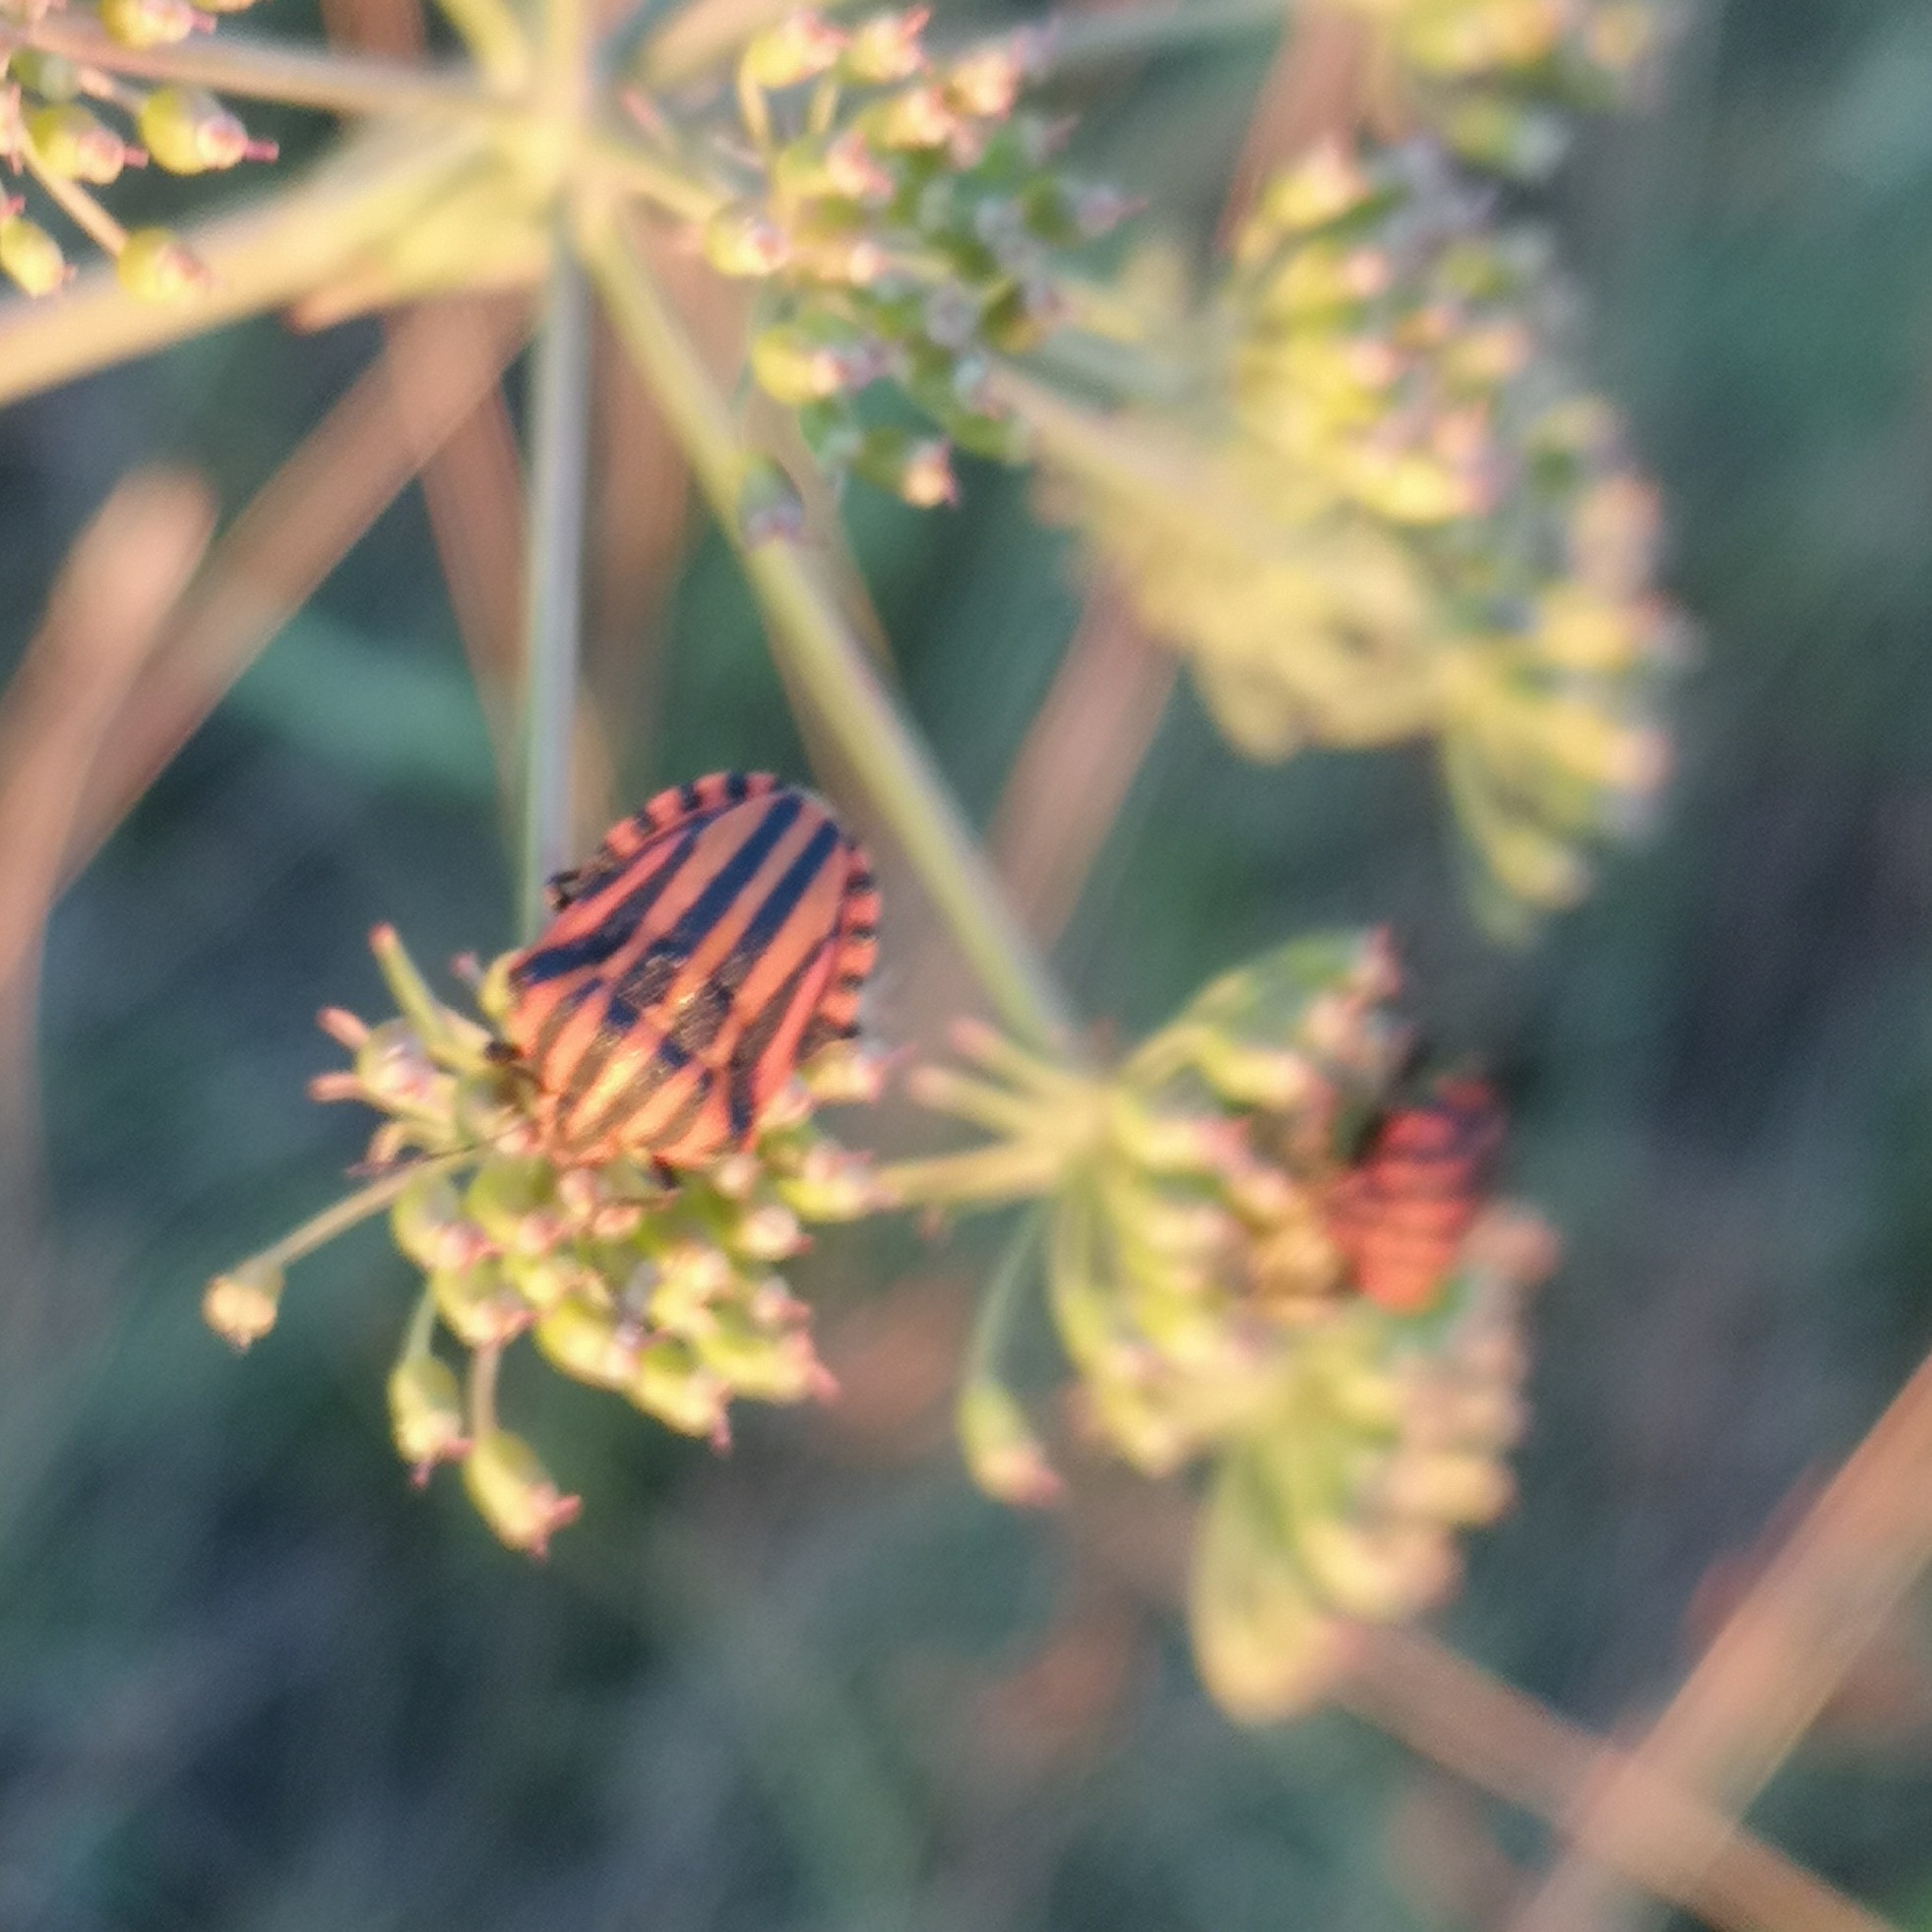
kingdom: Animalia
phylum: Arthropoda
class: Insecta
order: Hemiptera
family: Pentatomidae
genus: Graphosoma
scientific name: Graphosoma italicum
